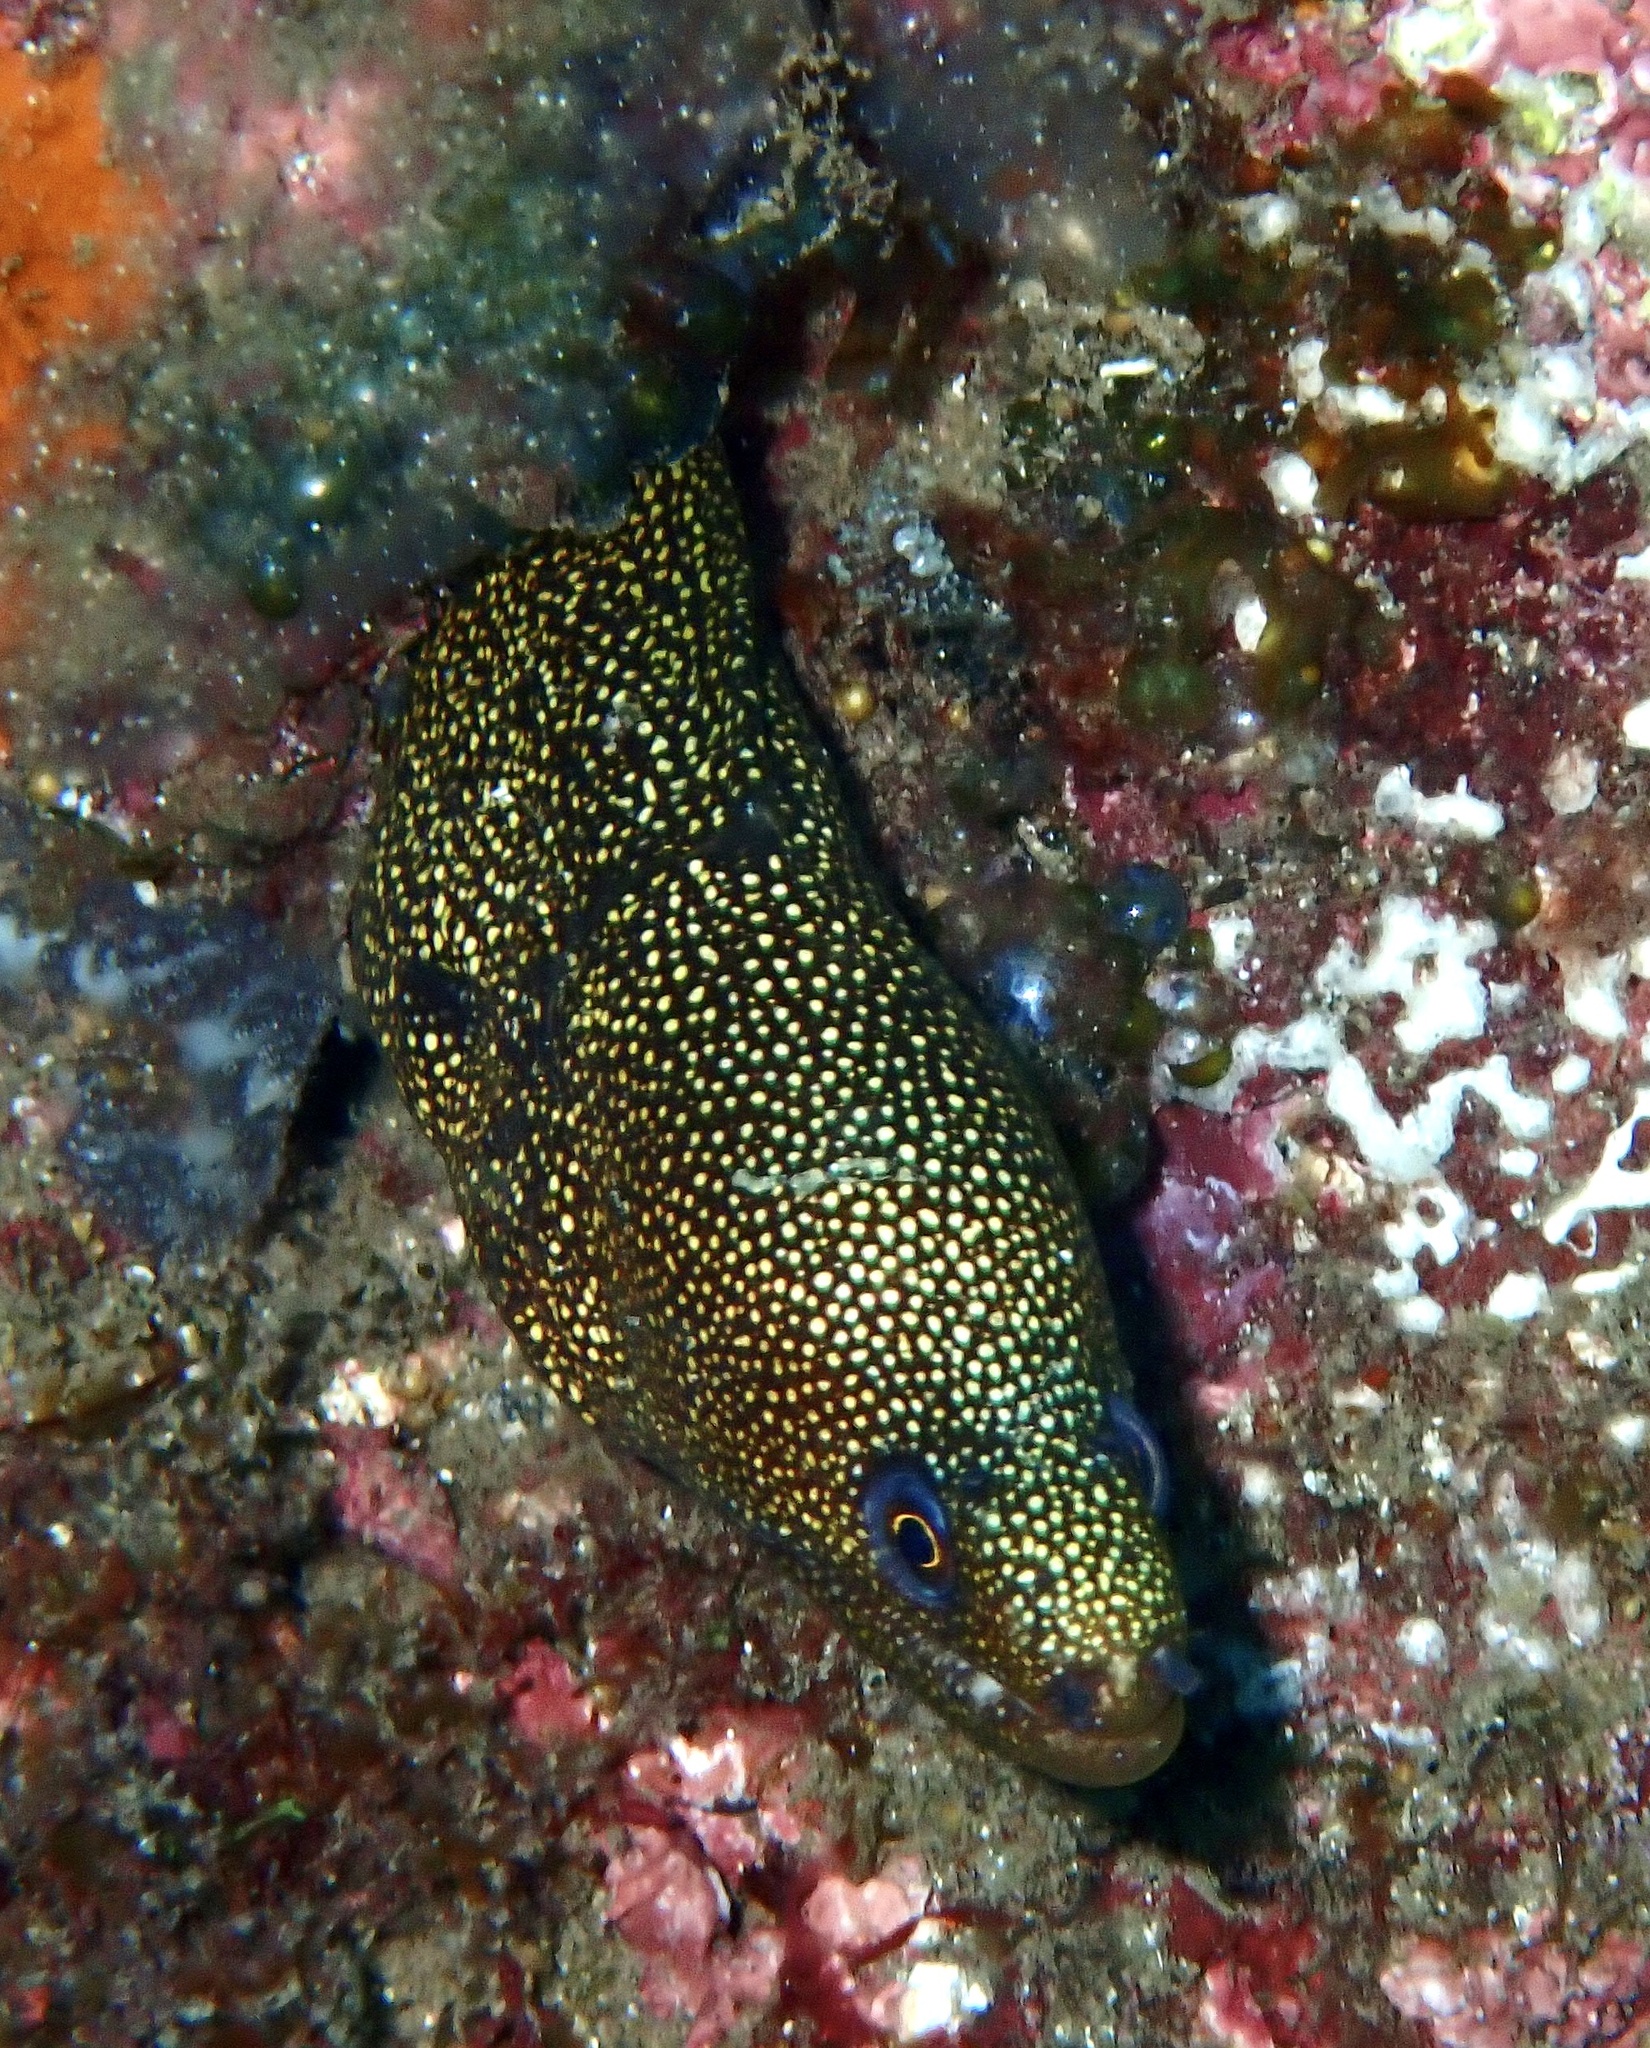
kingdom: Animalia
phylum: Chordata
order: Anguilliformes
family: Muraenidae
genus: Gymnothorax
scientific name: Gymnothorax miliaris
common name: Goldentail moray
